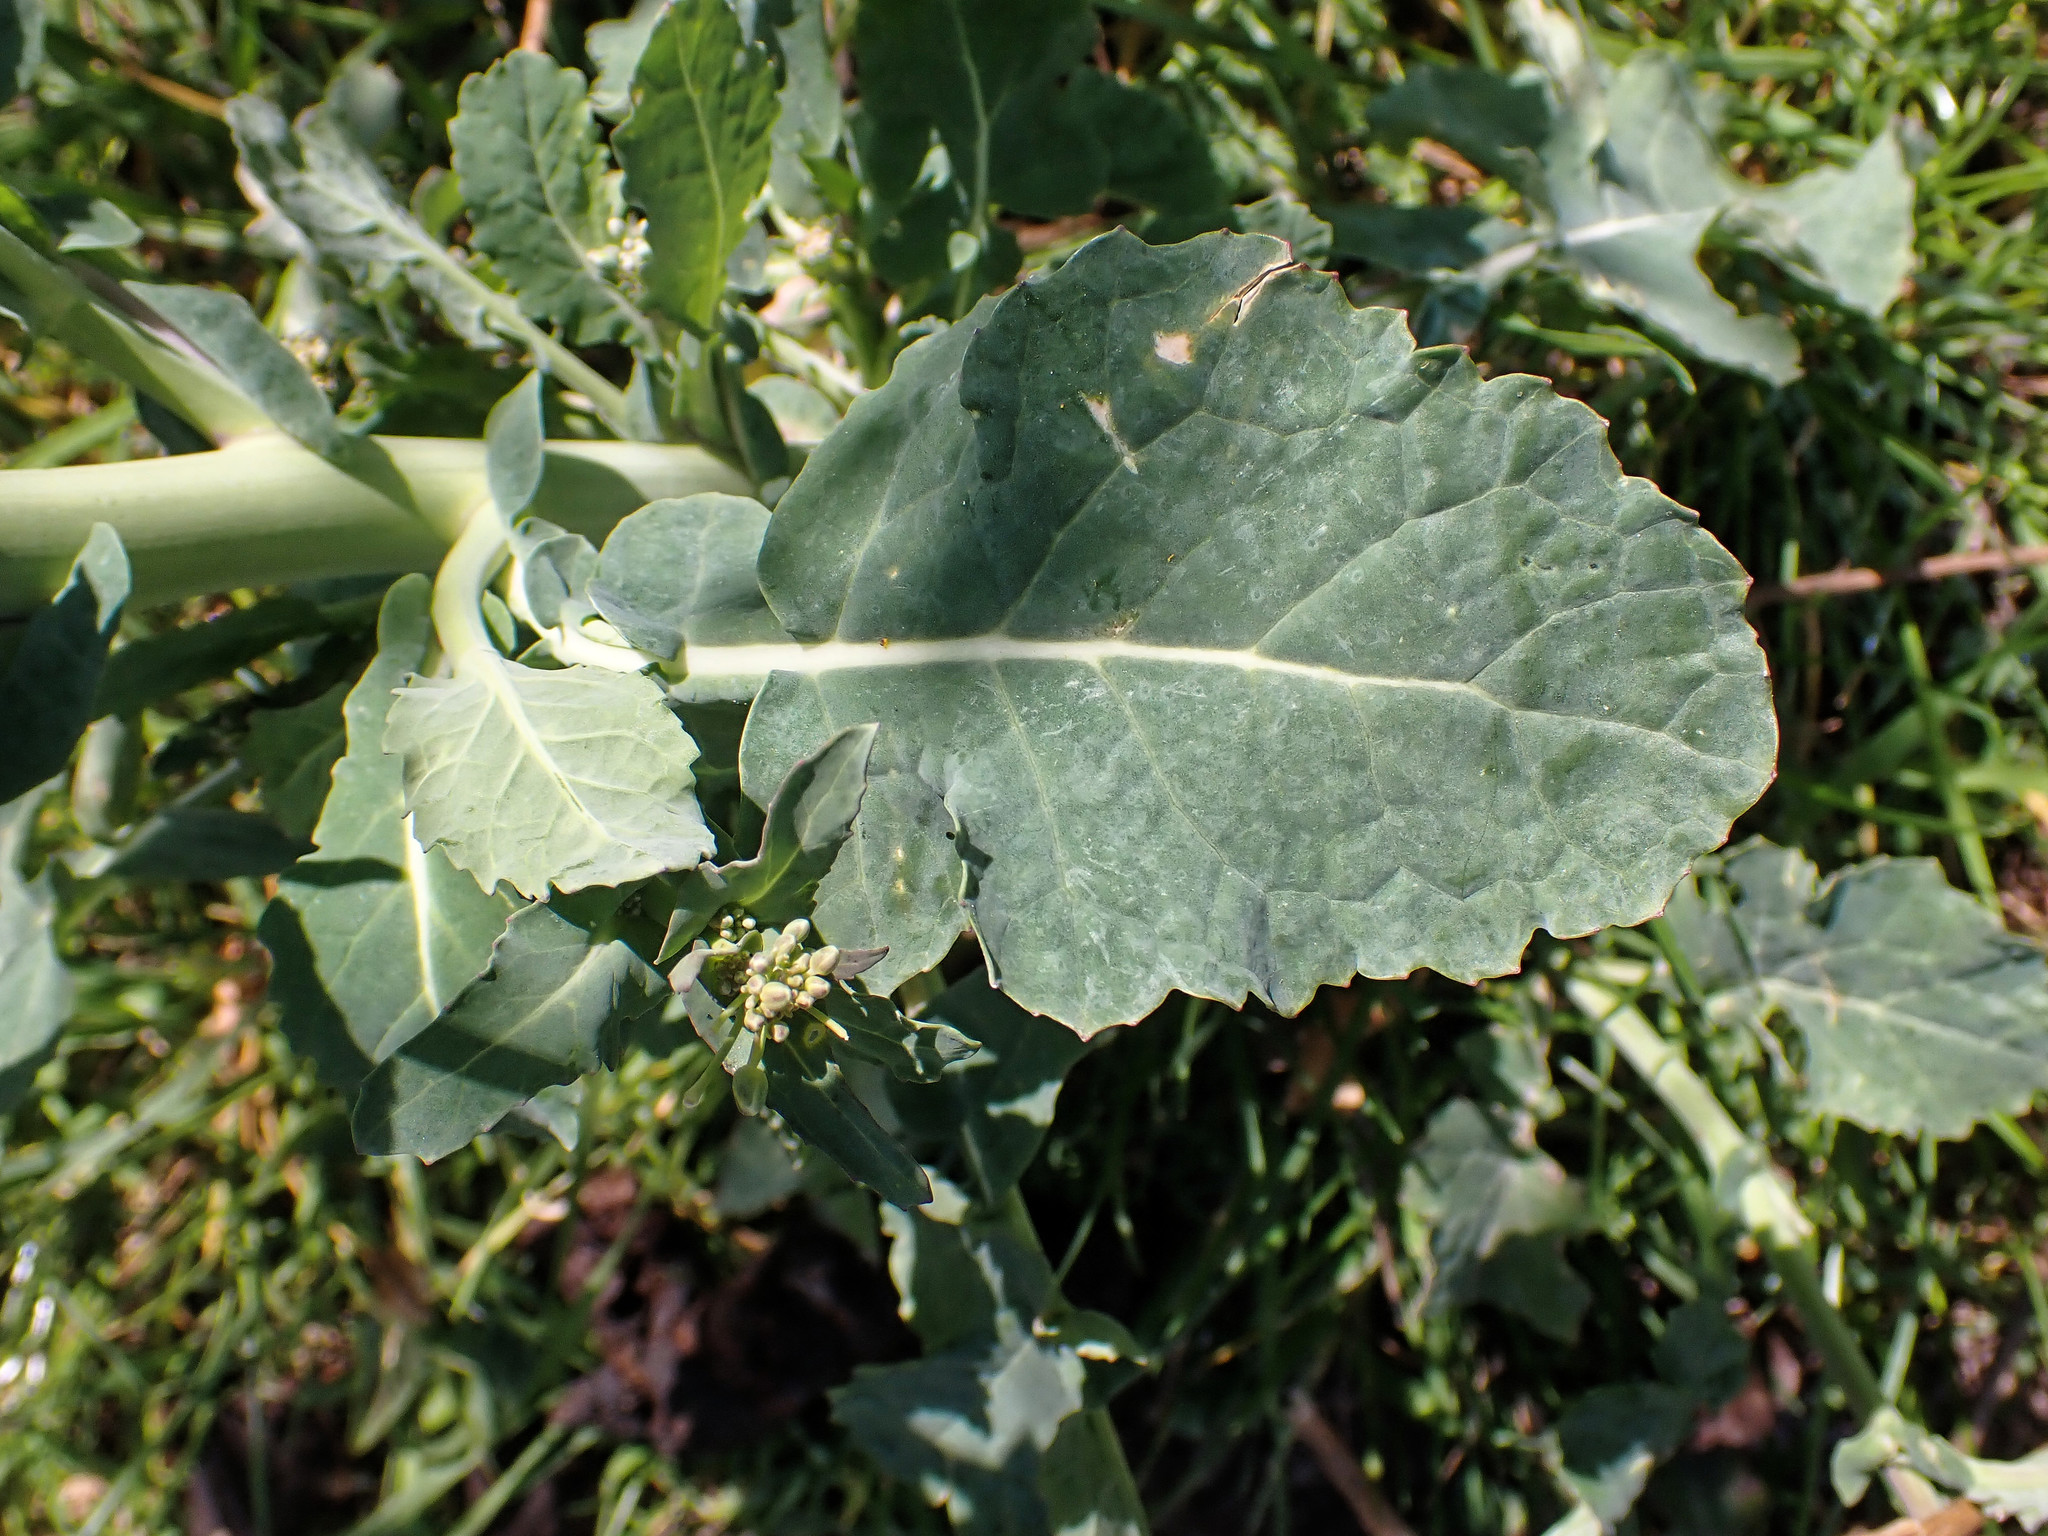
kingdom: Plantae
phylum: Tracheophyta
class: Magnoliopsida
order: Brassicales
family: Brassicaceae
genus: Brassica
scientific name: Brassica napus
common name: Rape
